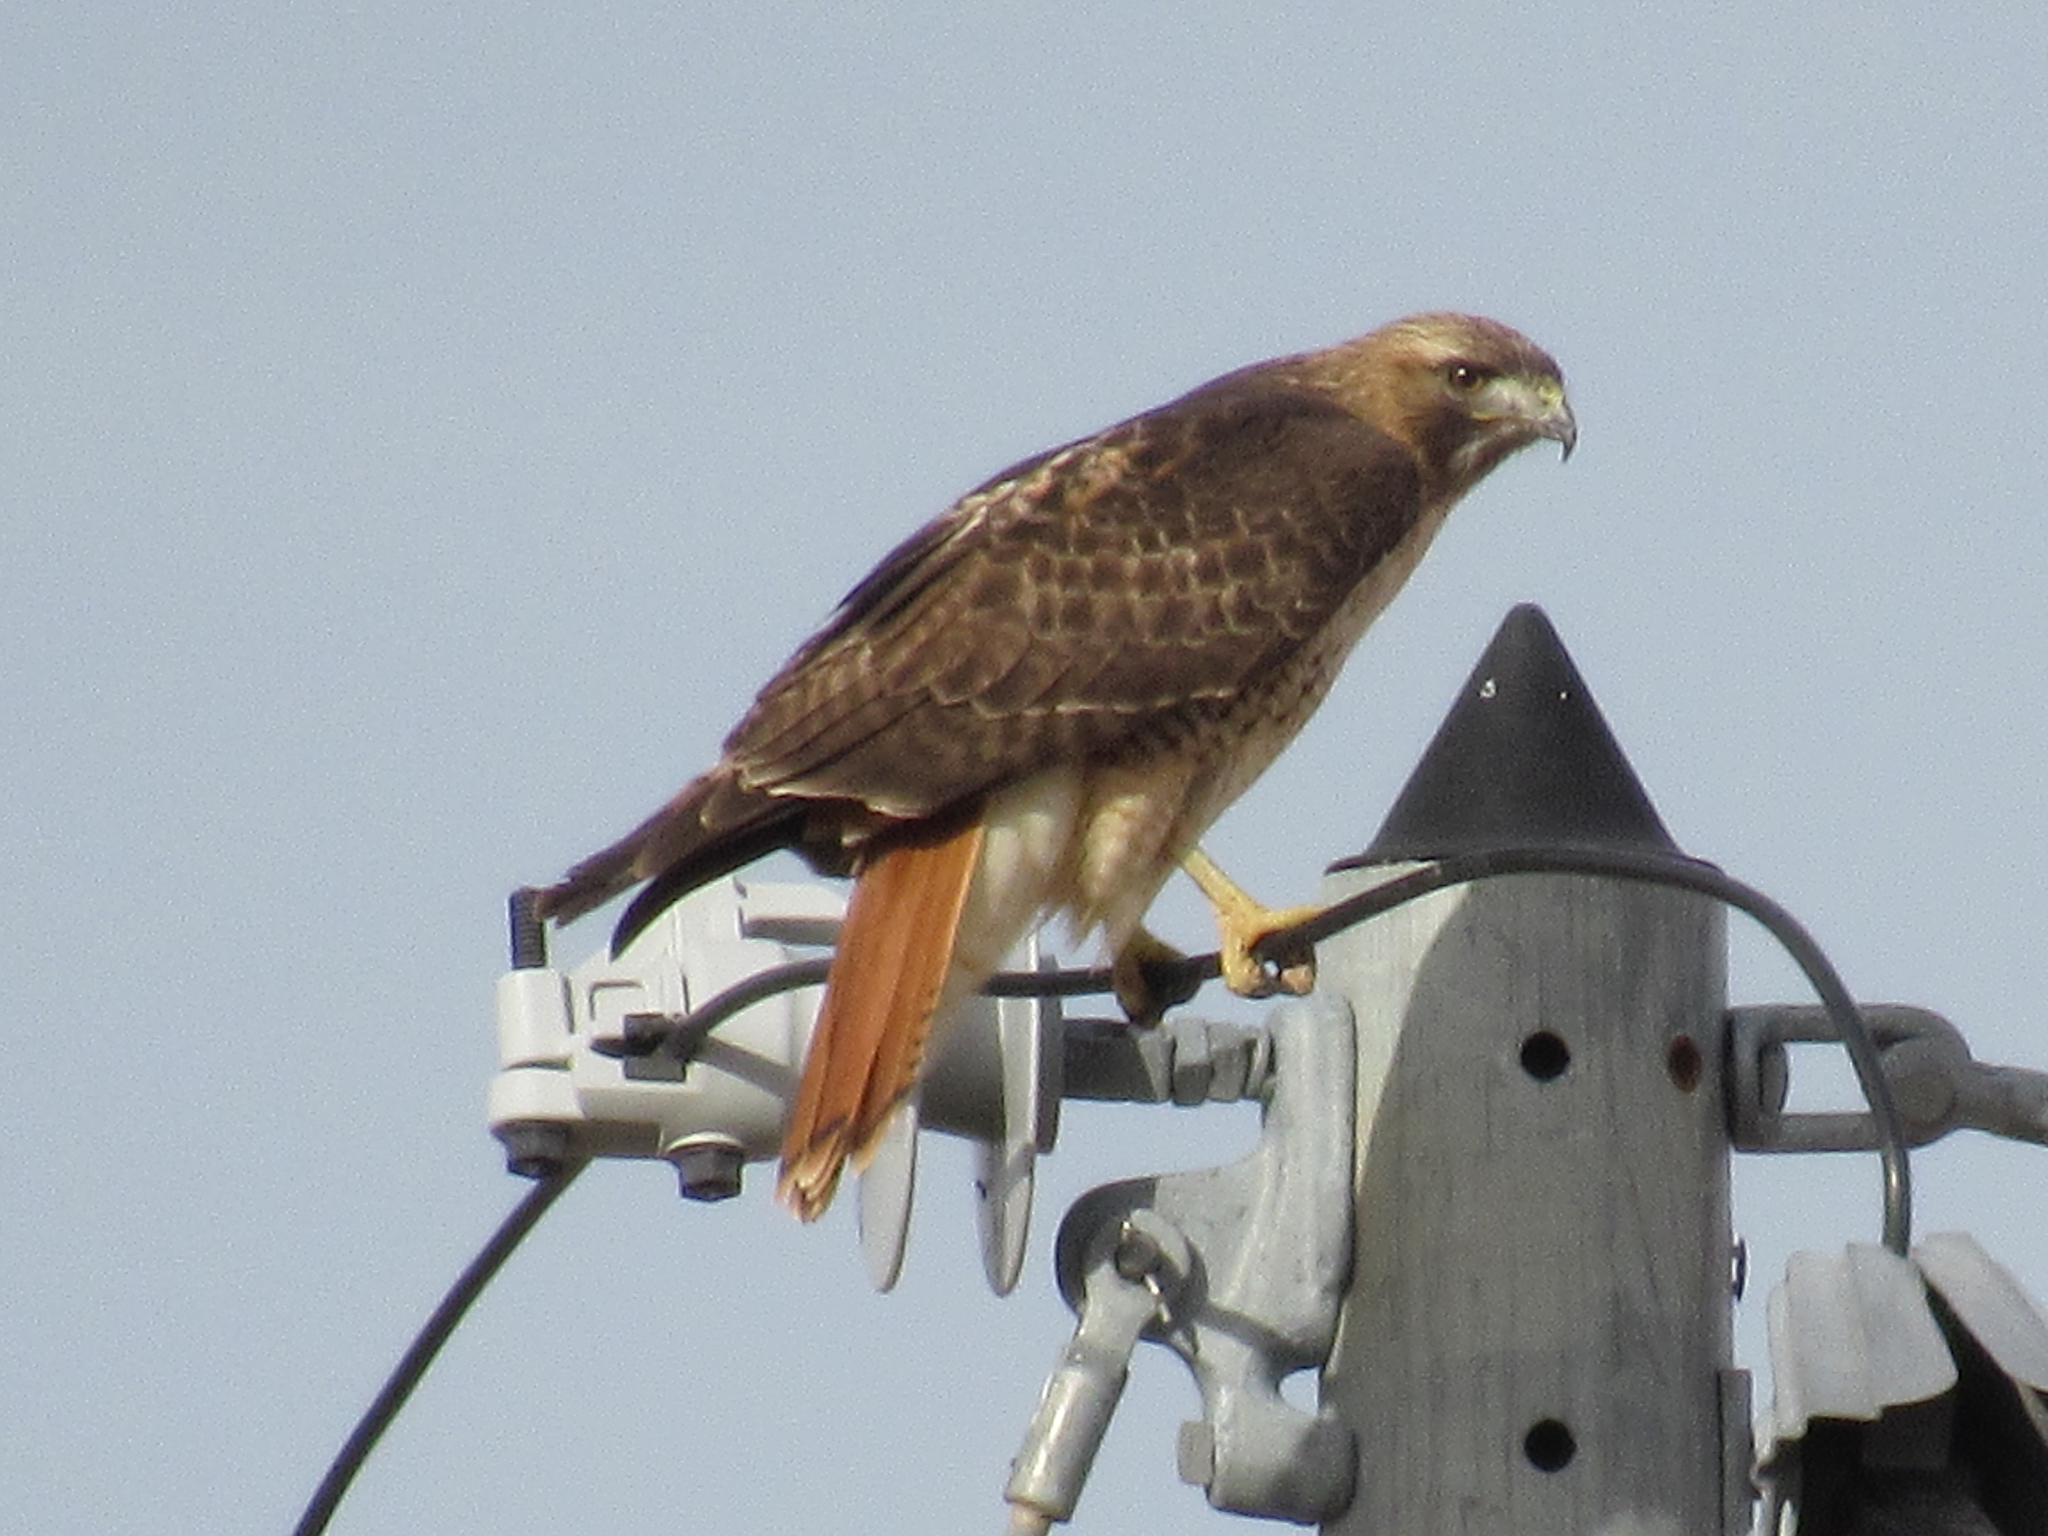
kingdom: Animalia
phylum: Chordata
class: Aves
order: Accipitriformes
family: Accipitridae
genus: Buteo
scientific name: Buteo jamaicensis
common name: Red-tailed hawk
